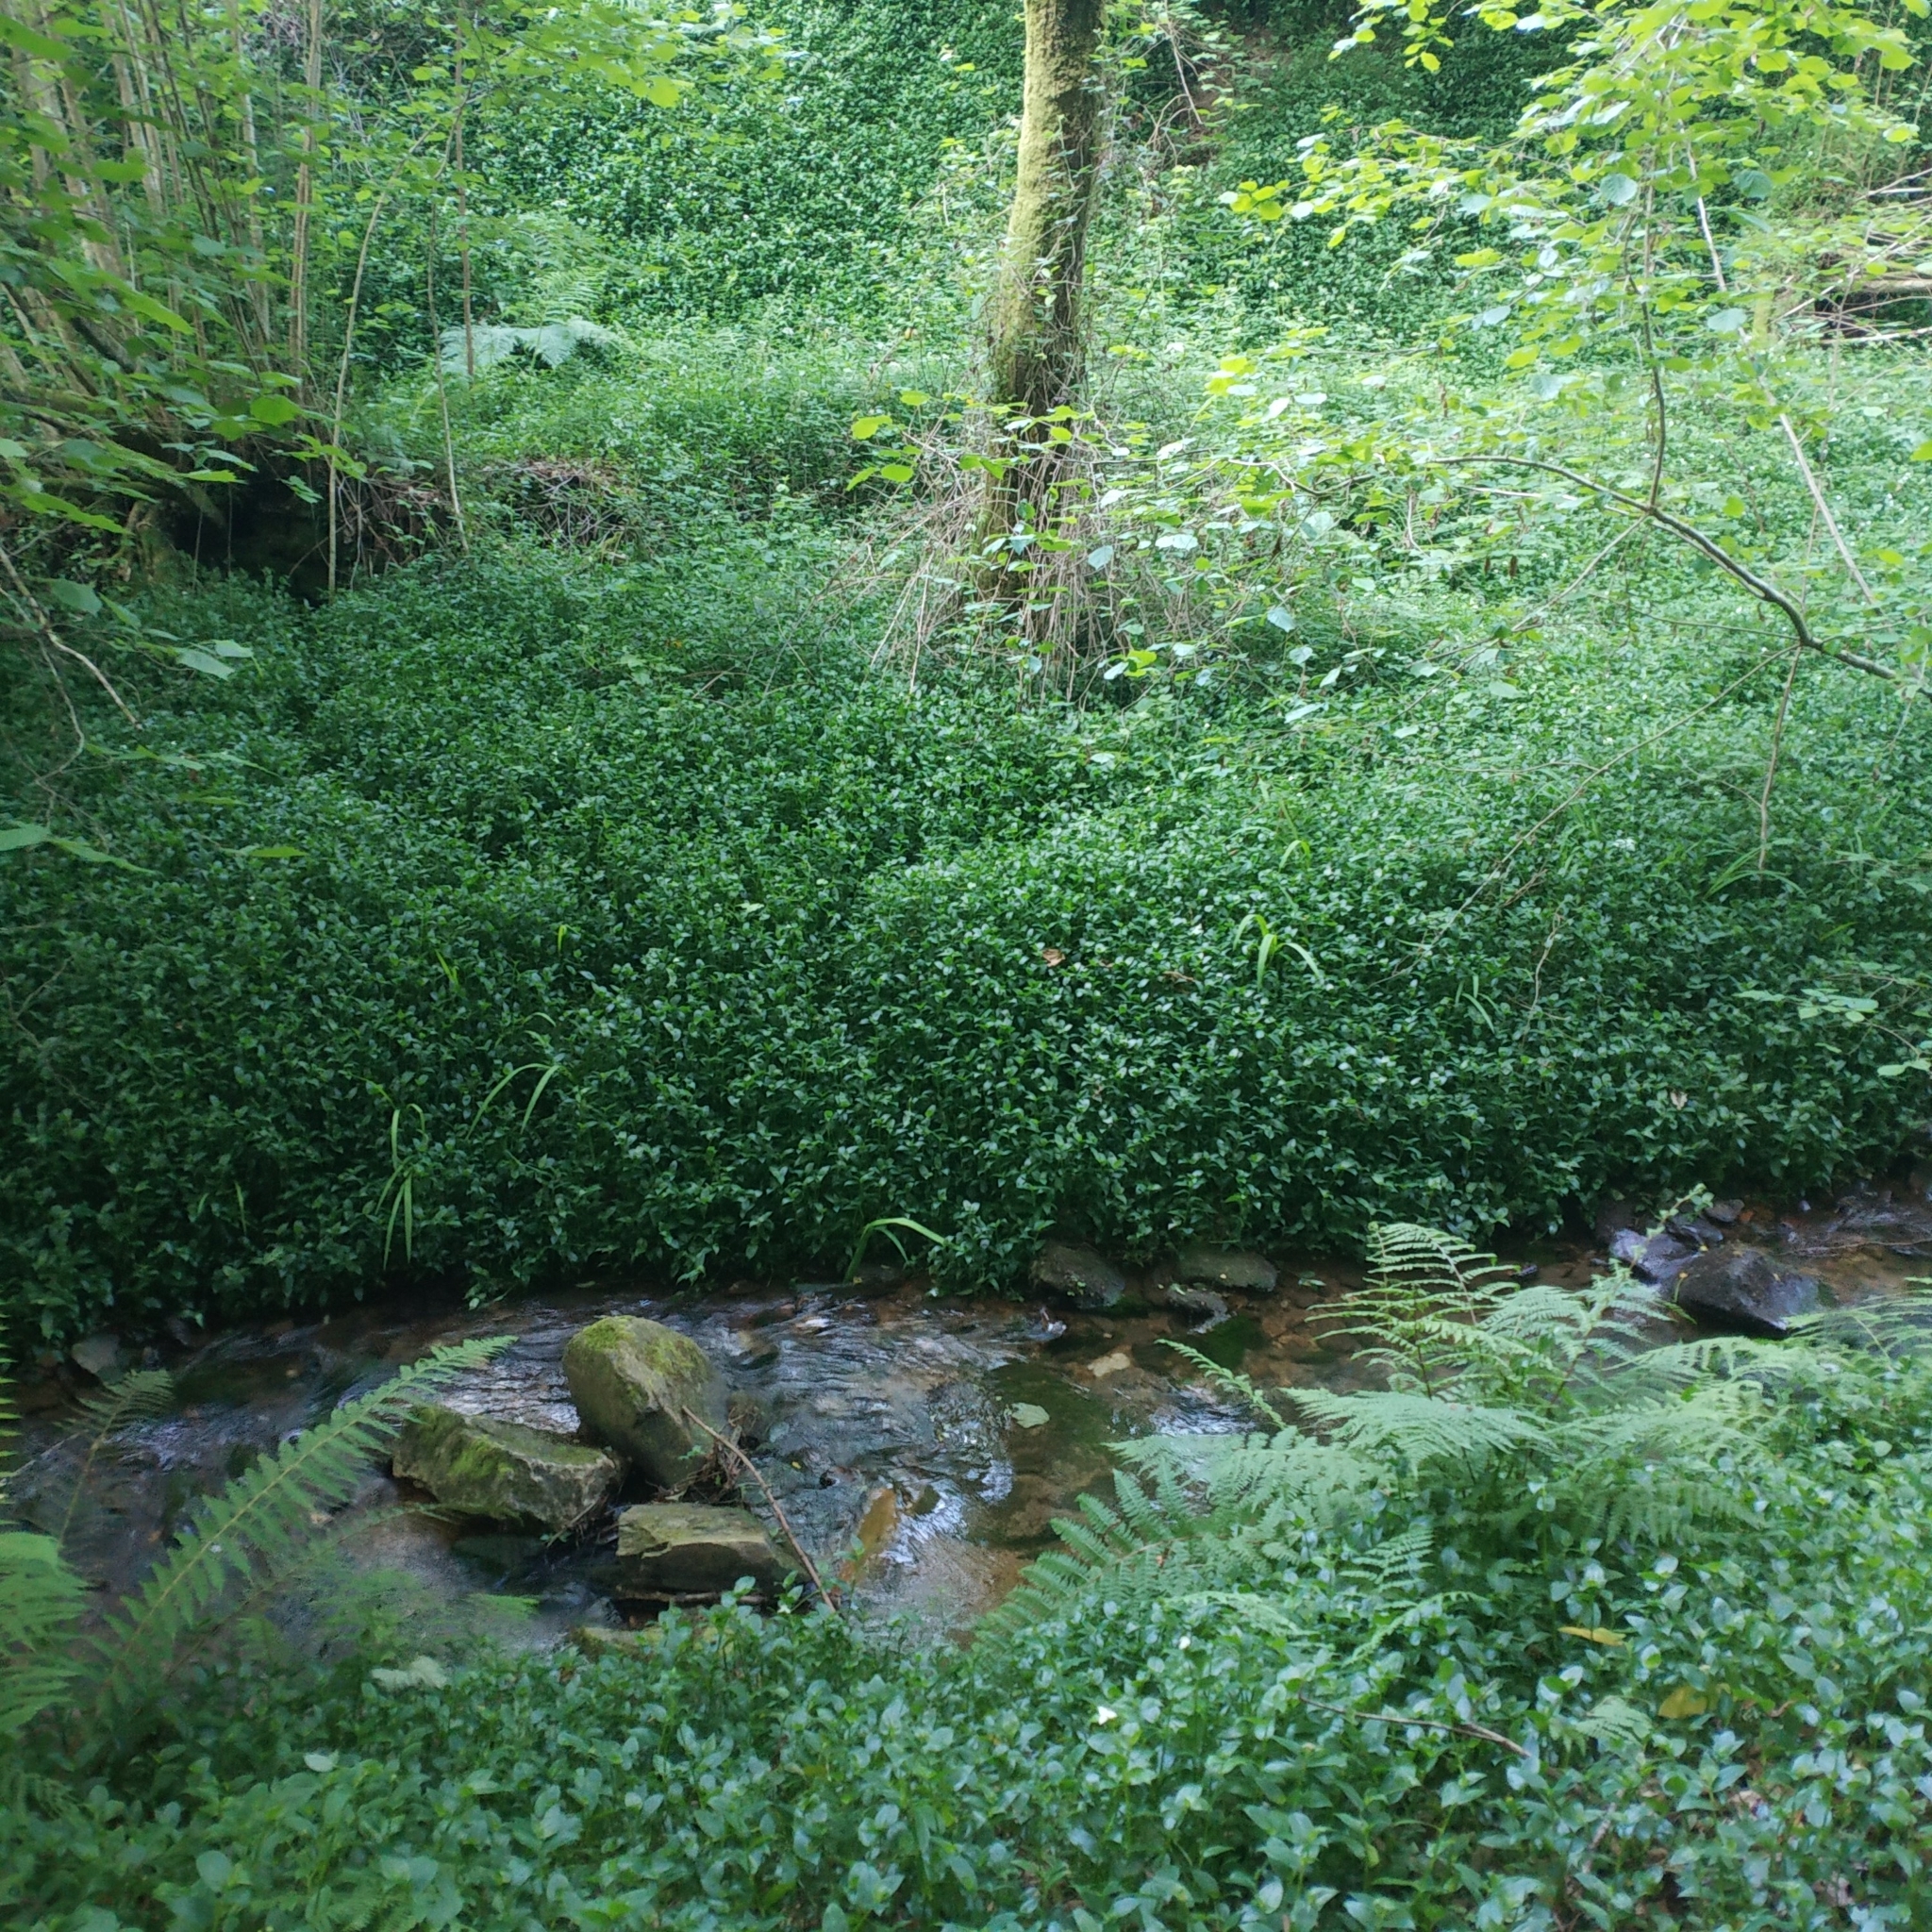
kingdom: Plantae
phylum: Tracheophyta
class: Liliopsida
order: Commelinales
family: Commelinaceae
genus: Tradescantia
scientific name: Tradescantia fluminensis
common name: Wandering-jew
